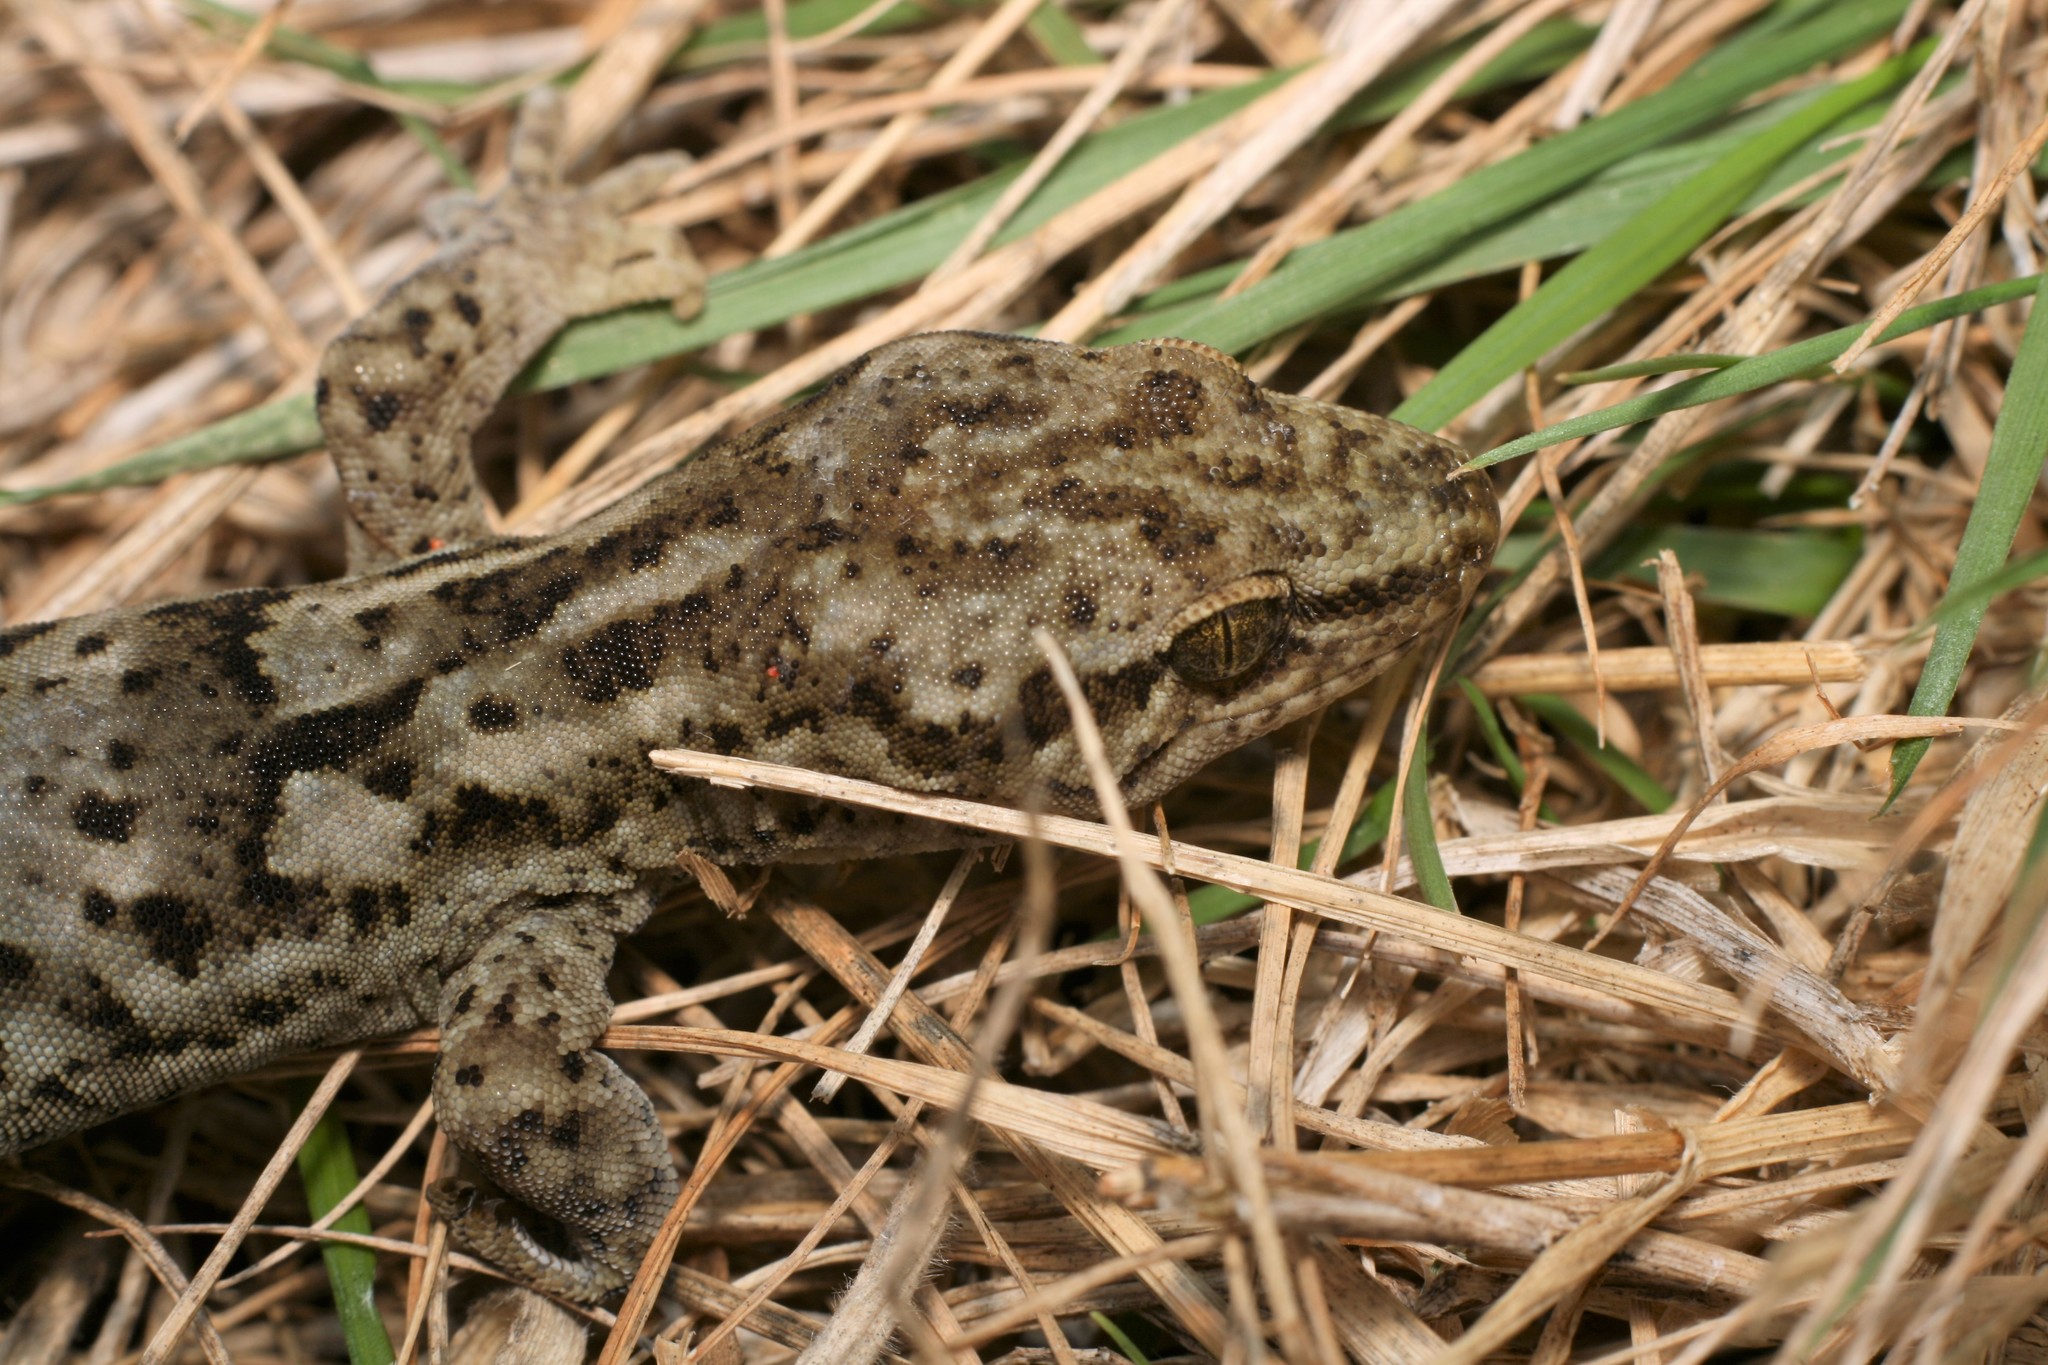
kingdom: Animalia
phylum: Chordata
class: Squamata
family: Diplodactylidae
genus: Woodworthia
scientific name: Woodworthia brunnea
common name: Canterbury gecko
